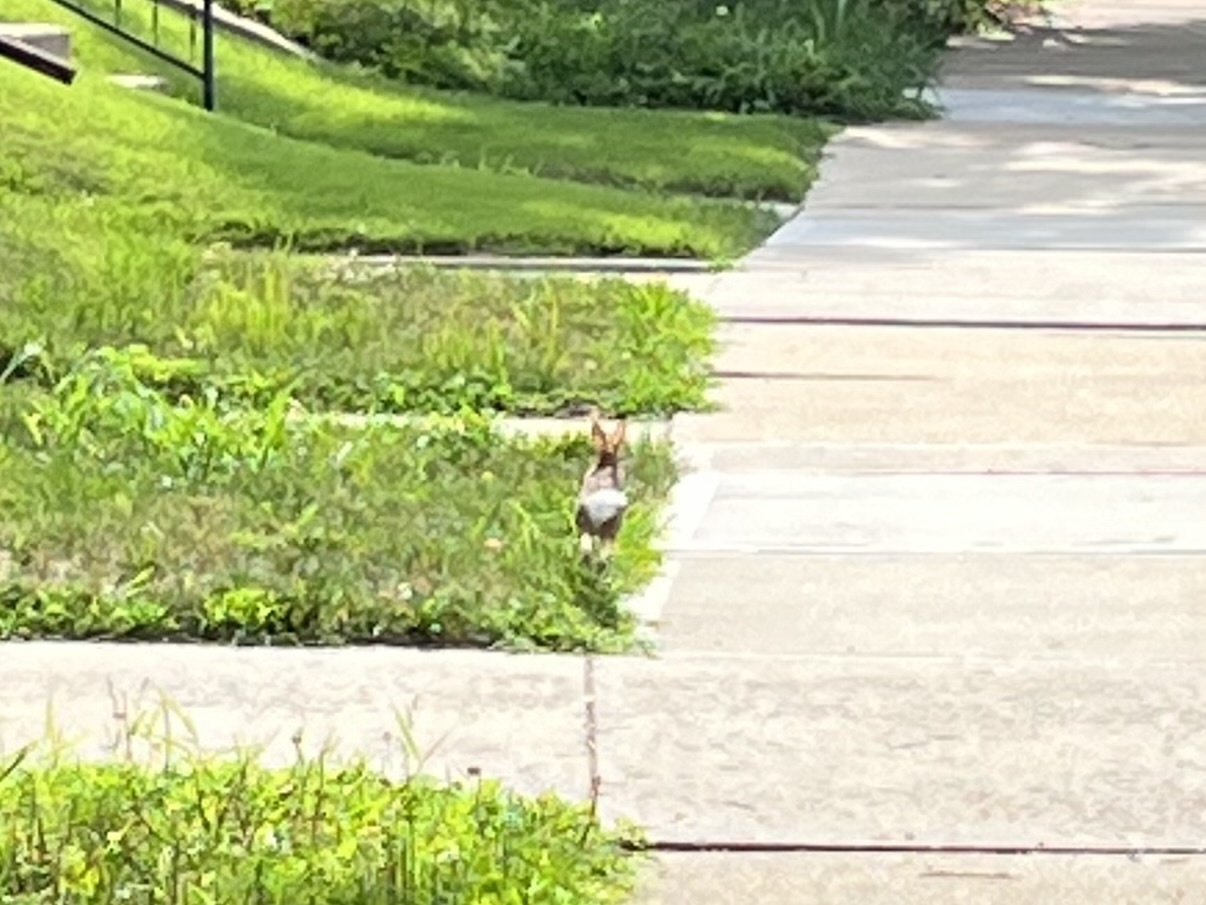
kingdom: Animalia
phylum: Chordata
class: Mammalia
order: Lagomorpha
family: Leporidae
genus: Sylvilagus
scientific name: Sylvilagus floridanus
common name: Eastern cottontail
